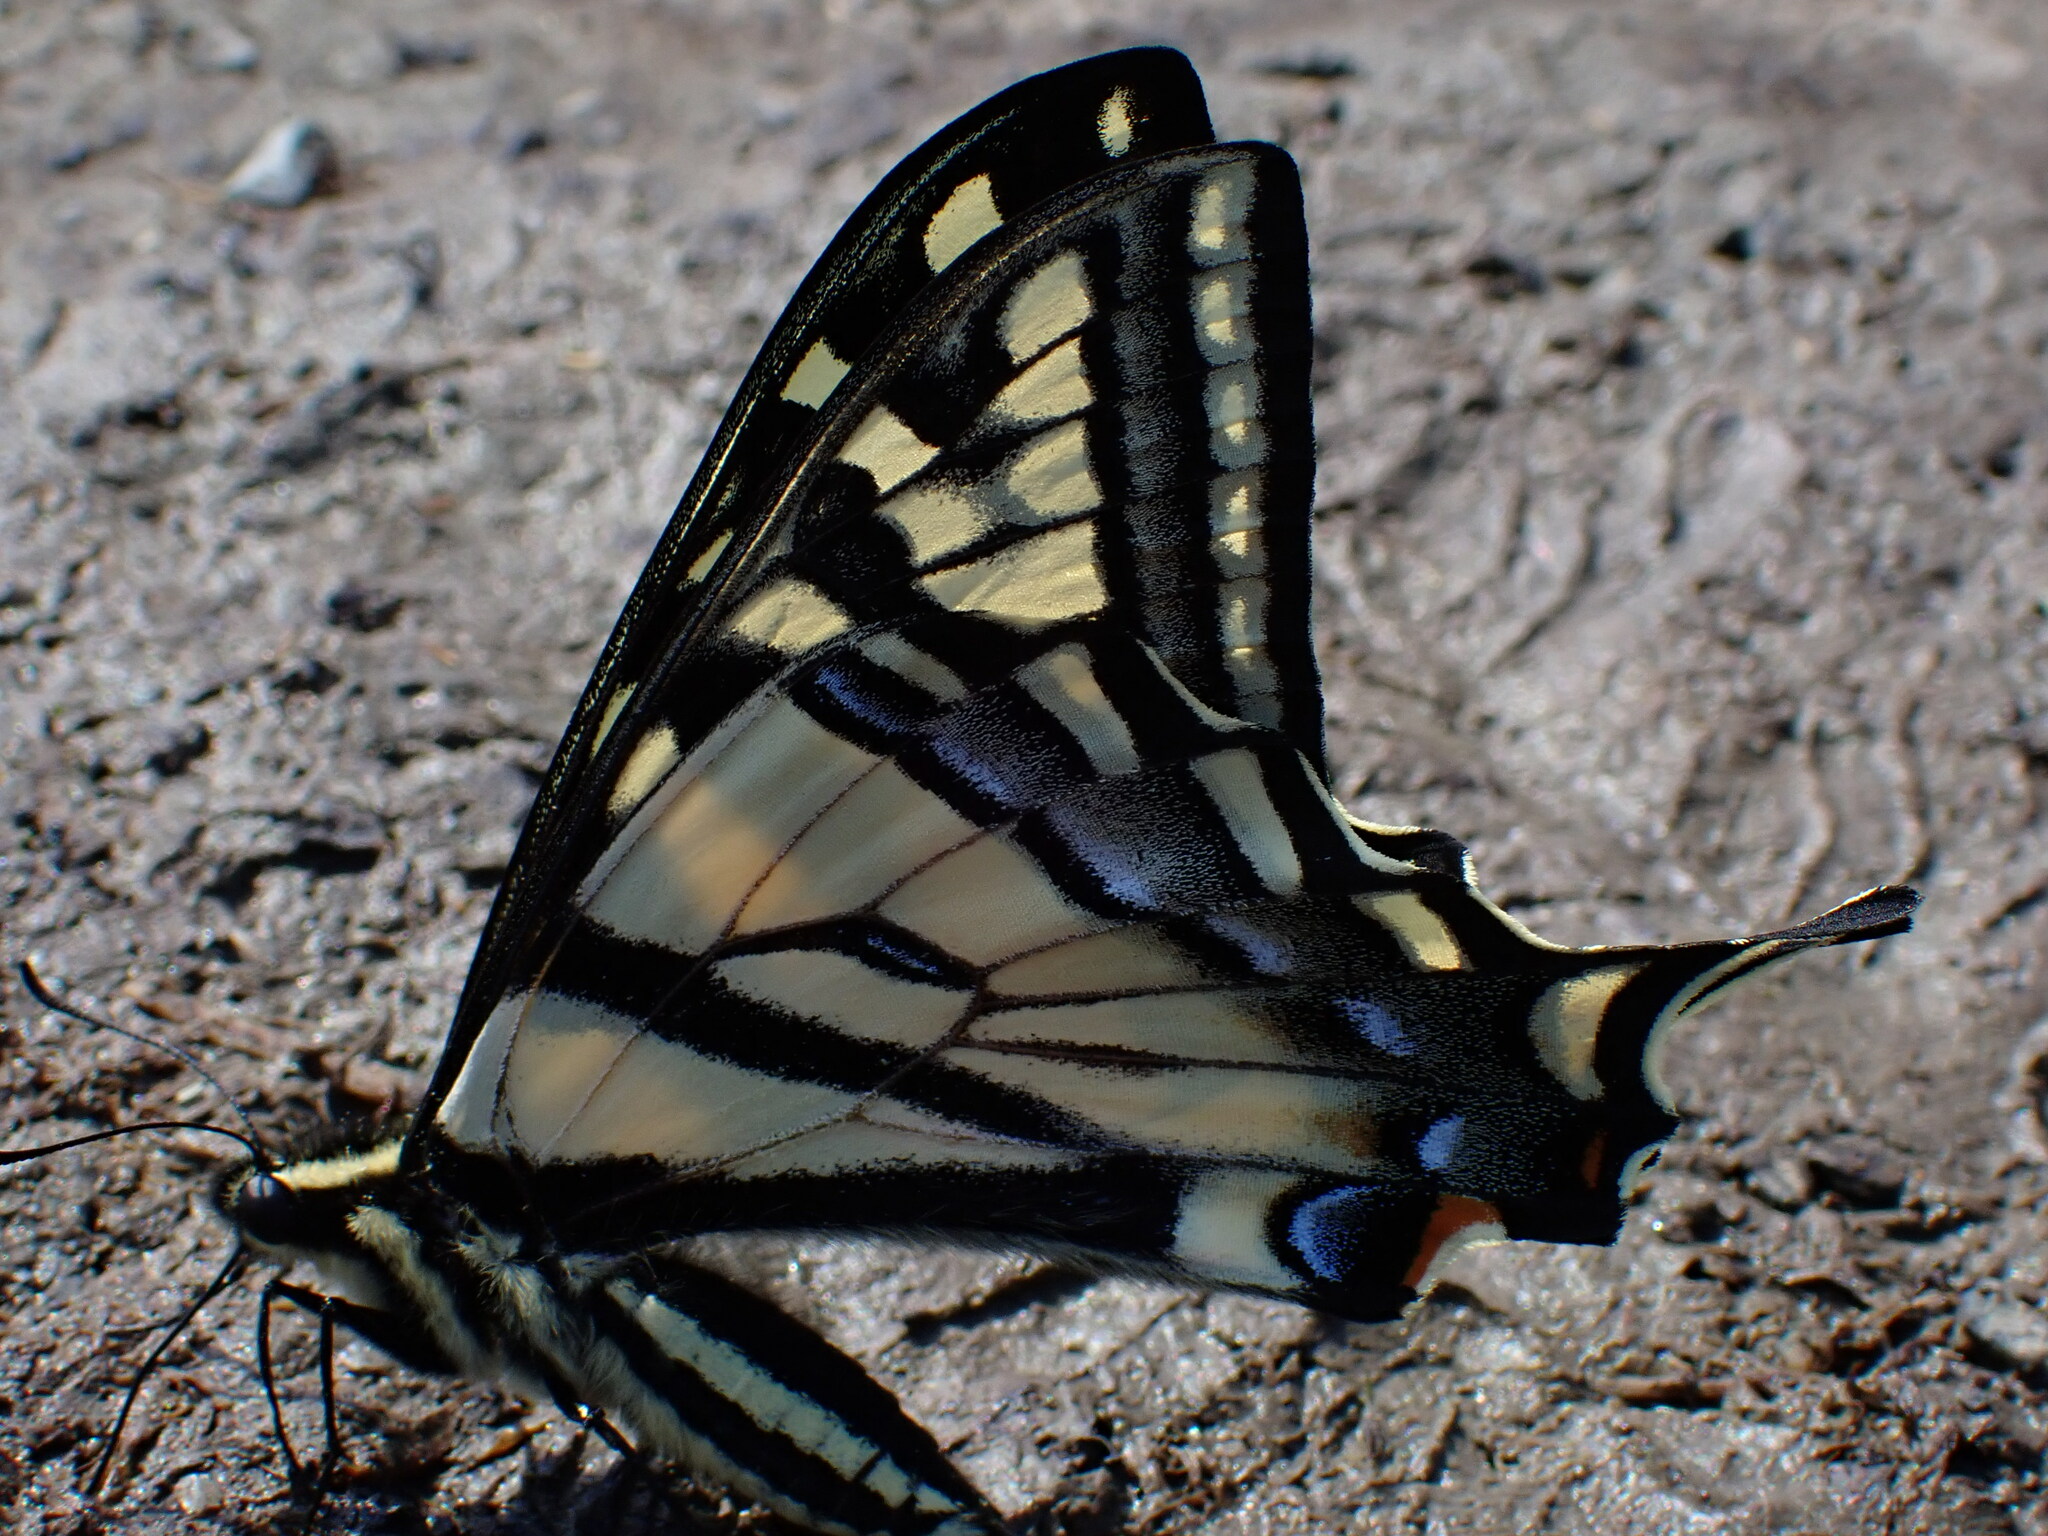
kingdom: Animalia
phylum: Arthropoda
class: Insecta
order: Lepidoptera
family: Papilionidae
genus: Papilio
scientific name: Papilio rutulus
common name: Western tiger swallowtail
